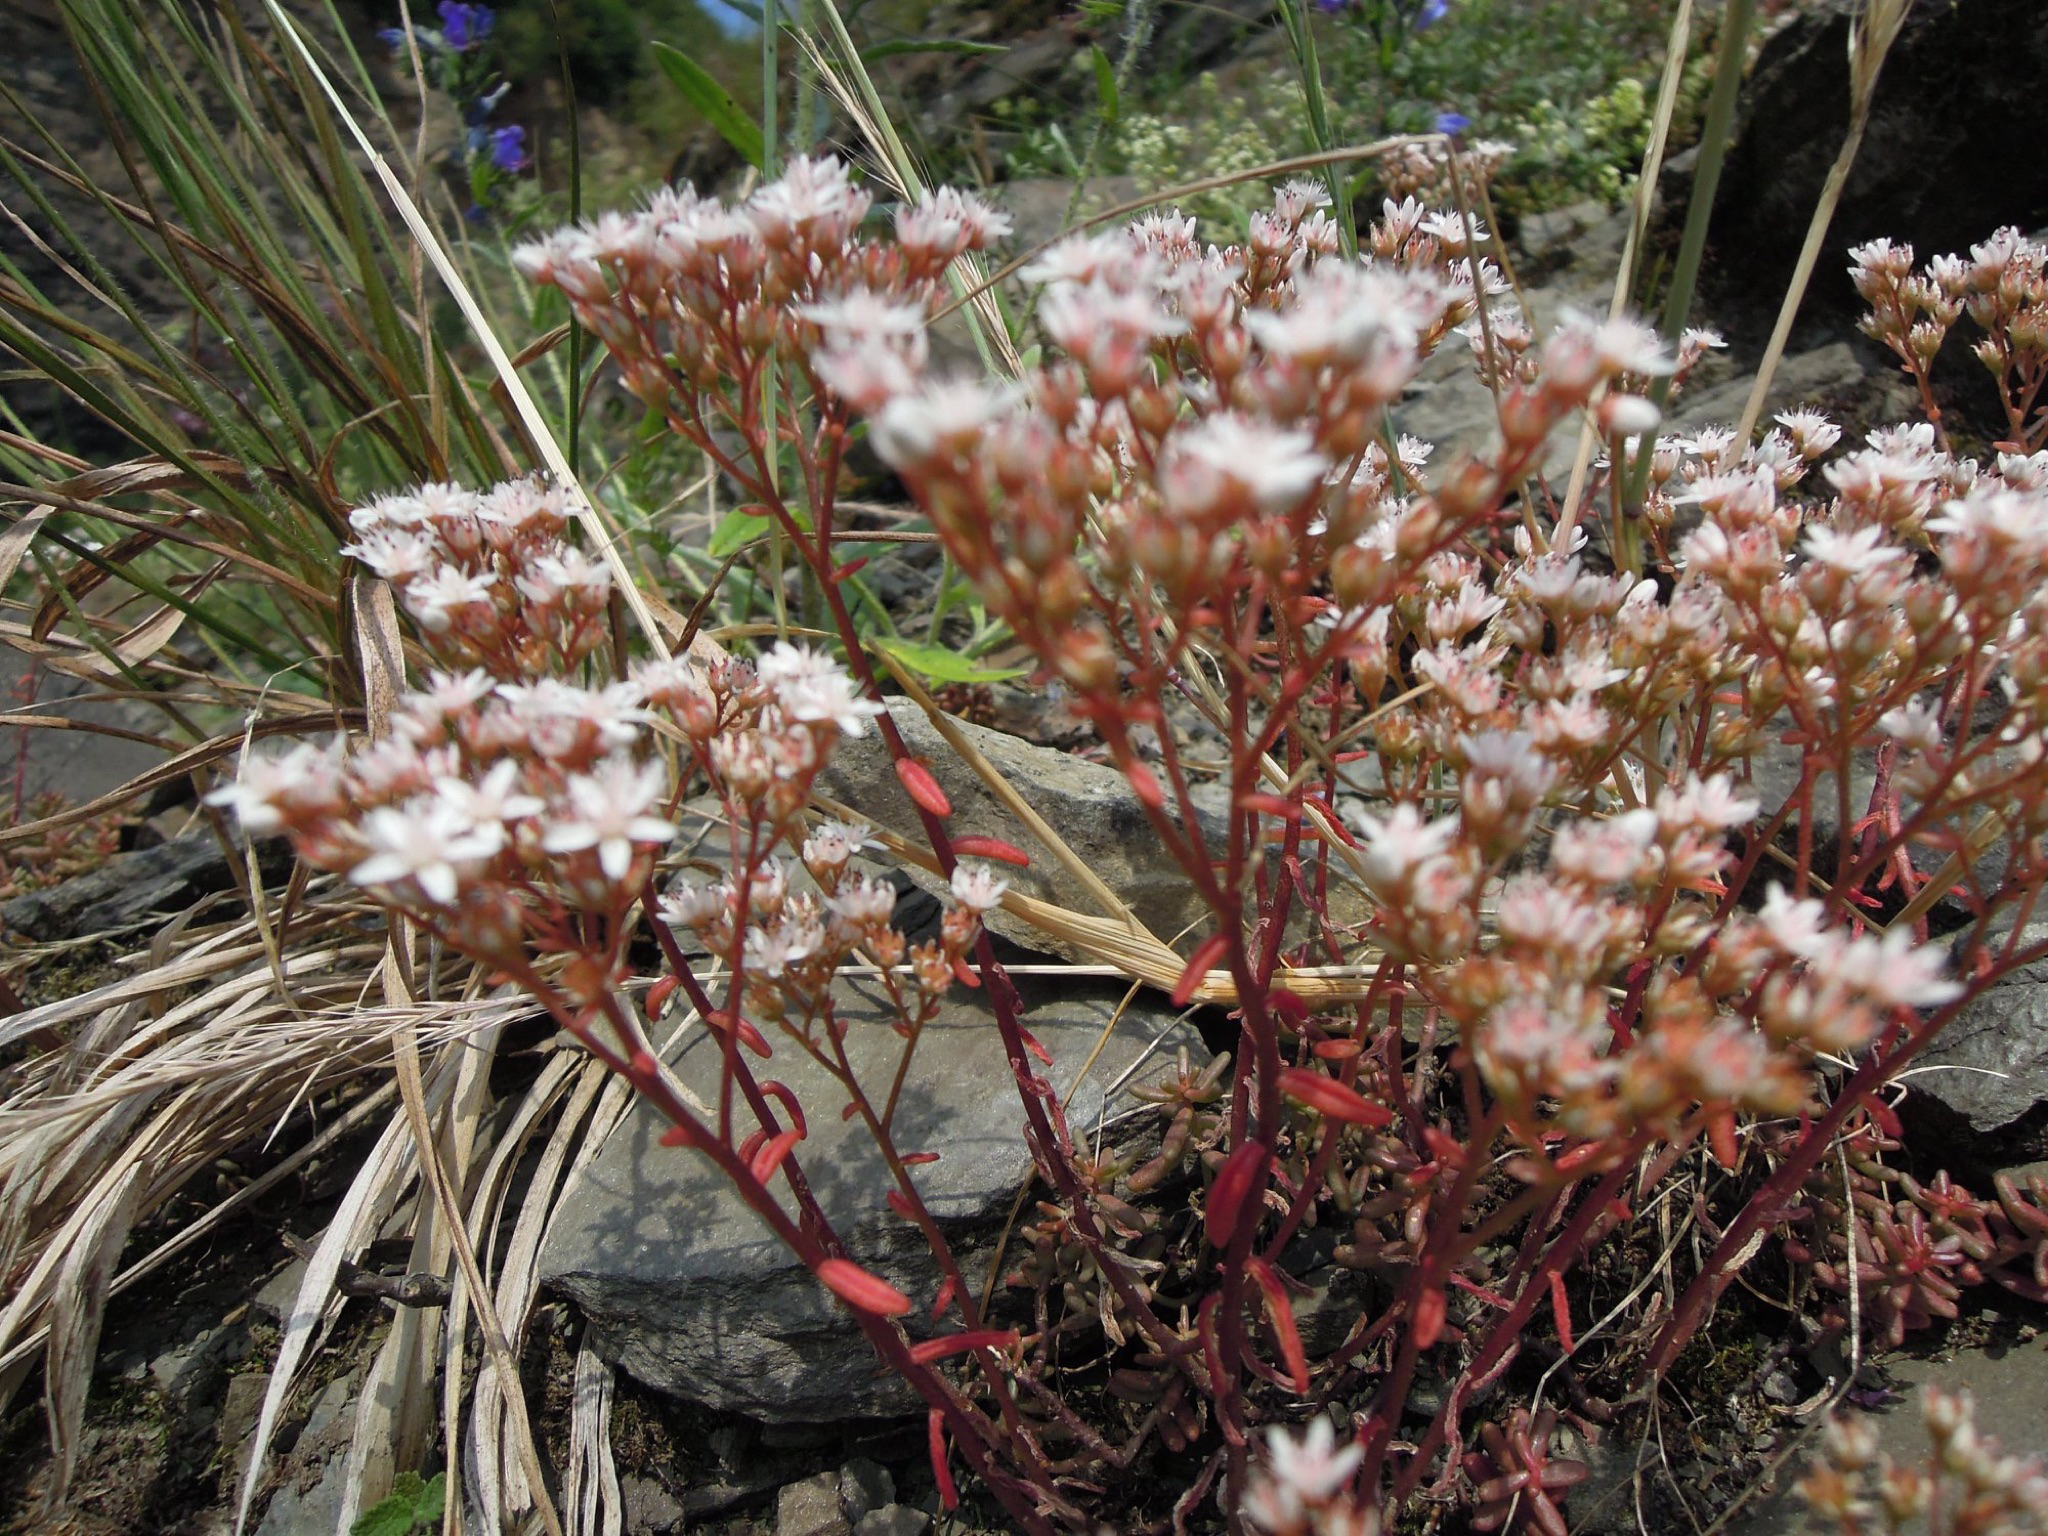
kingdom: Plantae
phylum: Tracheophyta
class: Magnoliopsida
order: Saxifragales
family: Crassulaceae
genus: Sedum
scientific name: Sedum album
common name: White stonecrop
